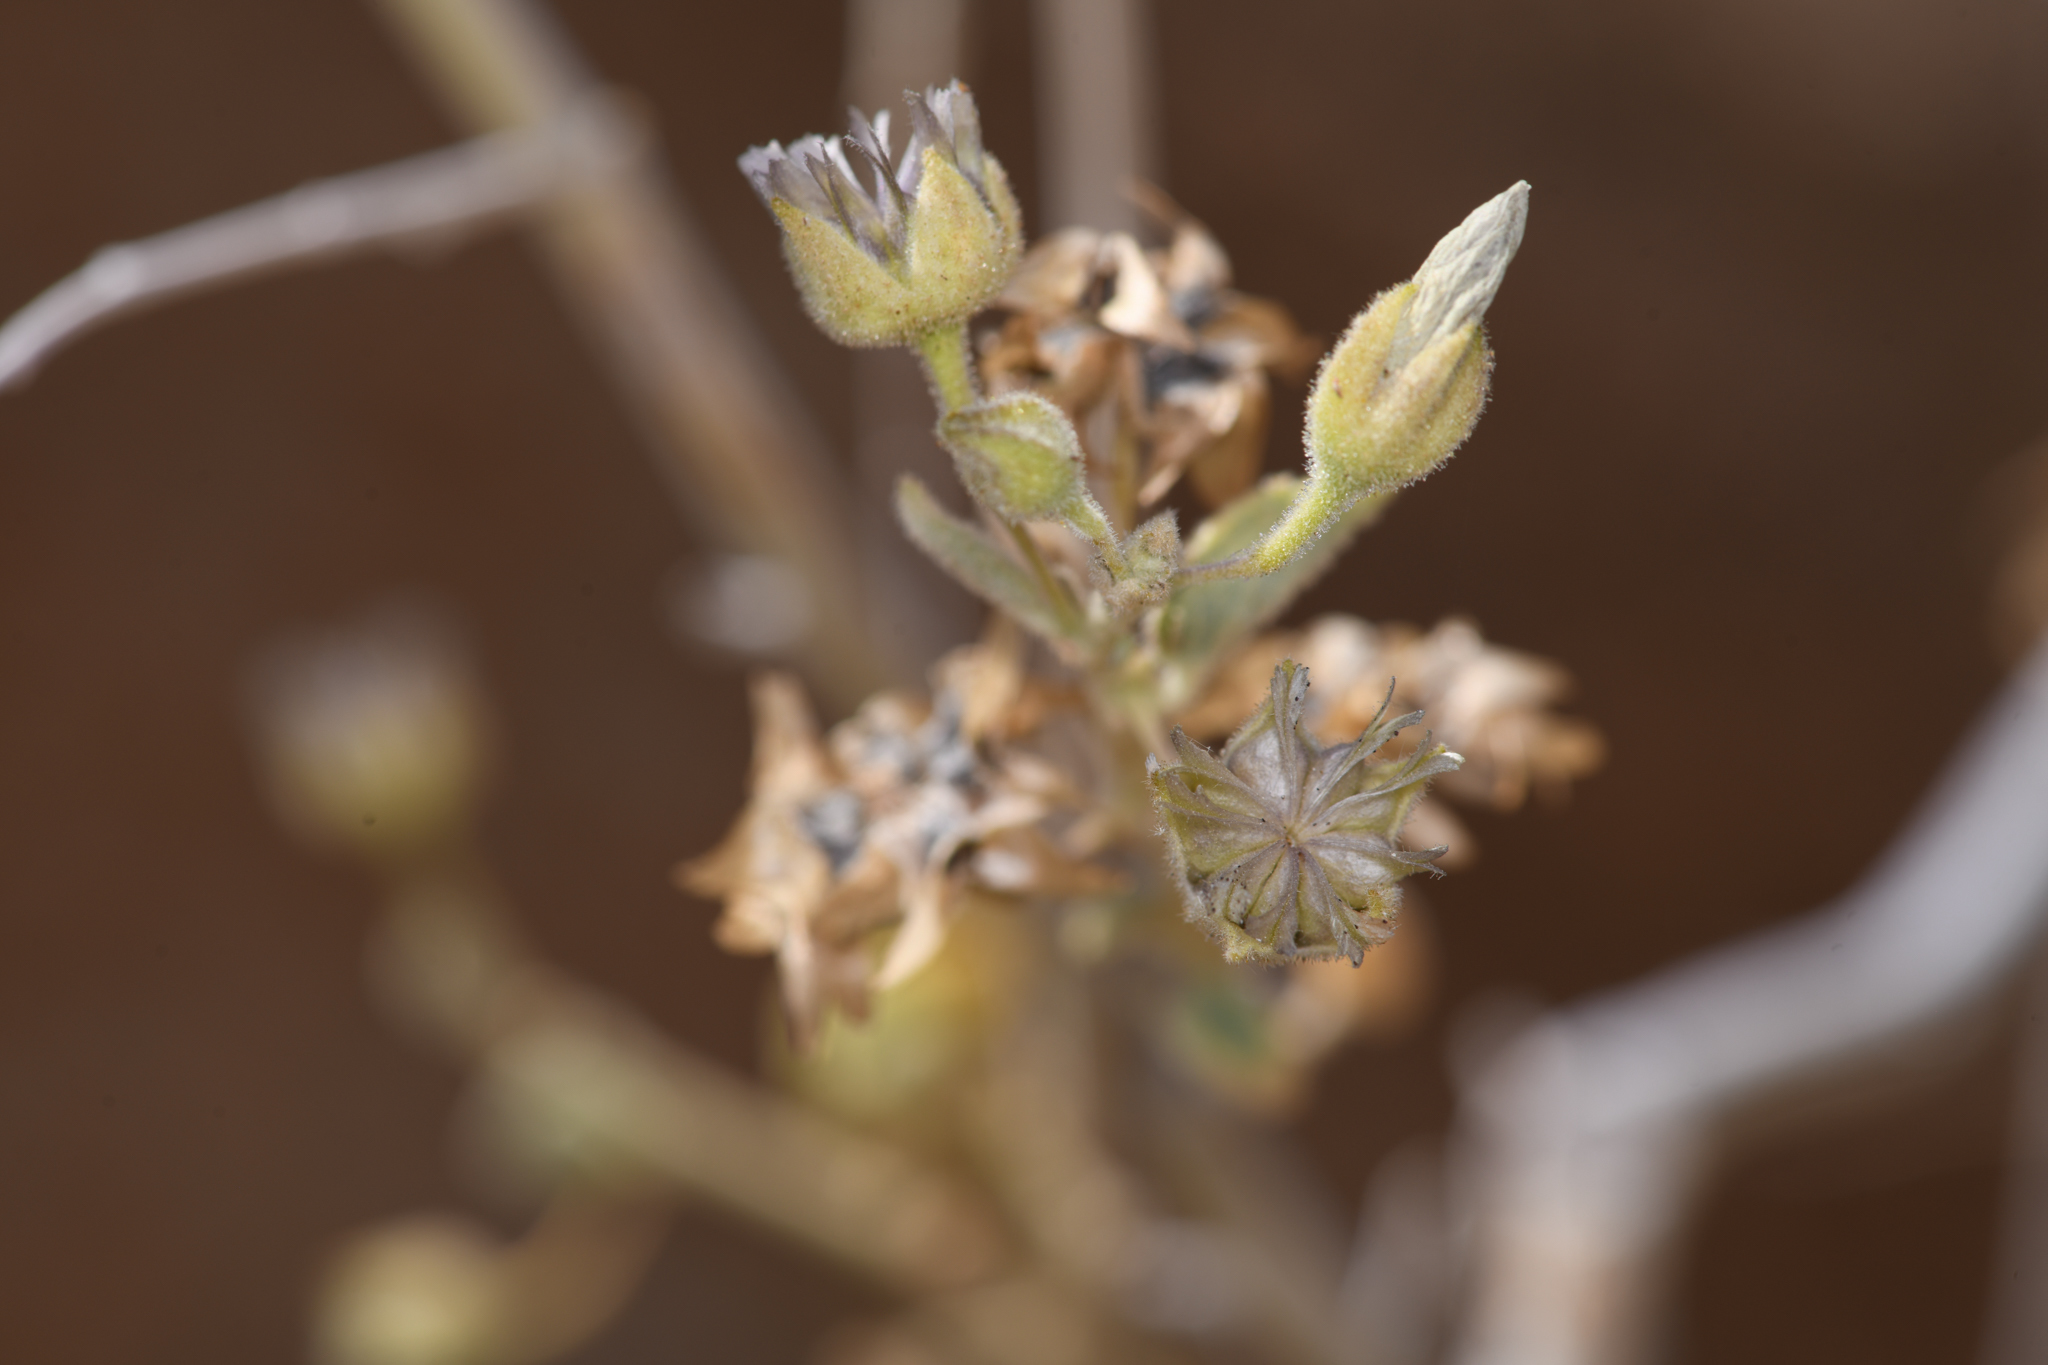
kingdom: Plantae
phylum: Tracheophyta
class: Magnoliopsida
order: Malvales
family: Malvaceae
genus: Horsfordia
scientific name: Horsfordia alata
